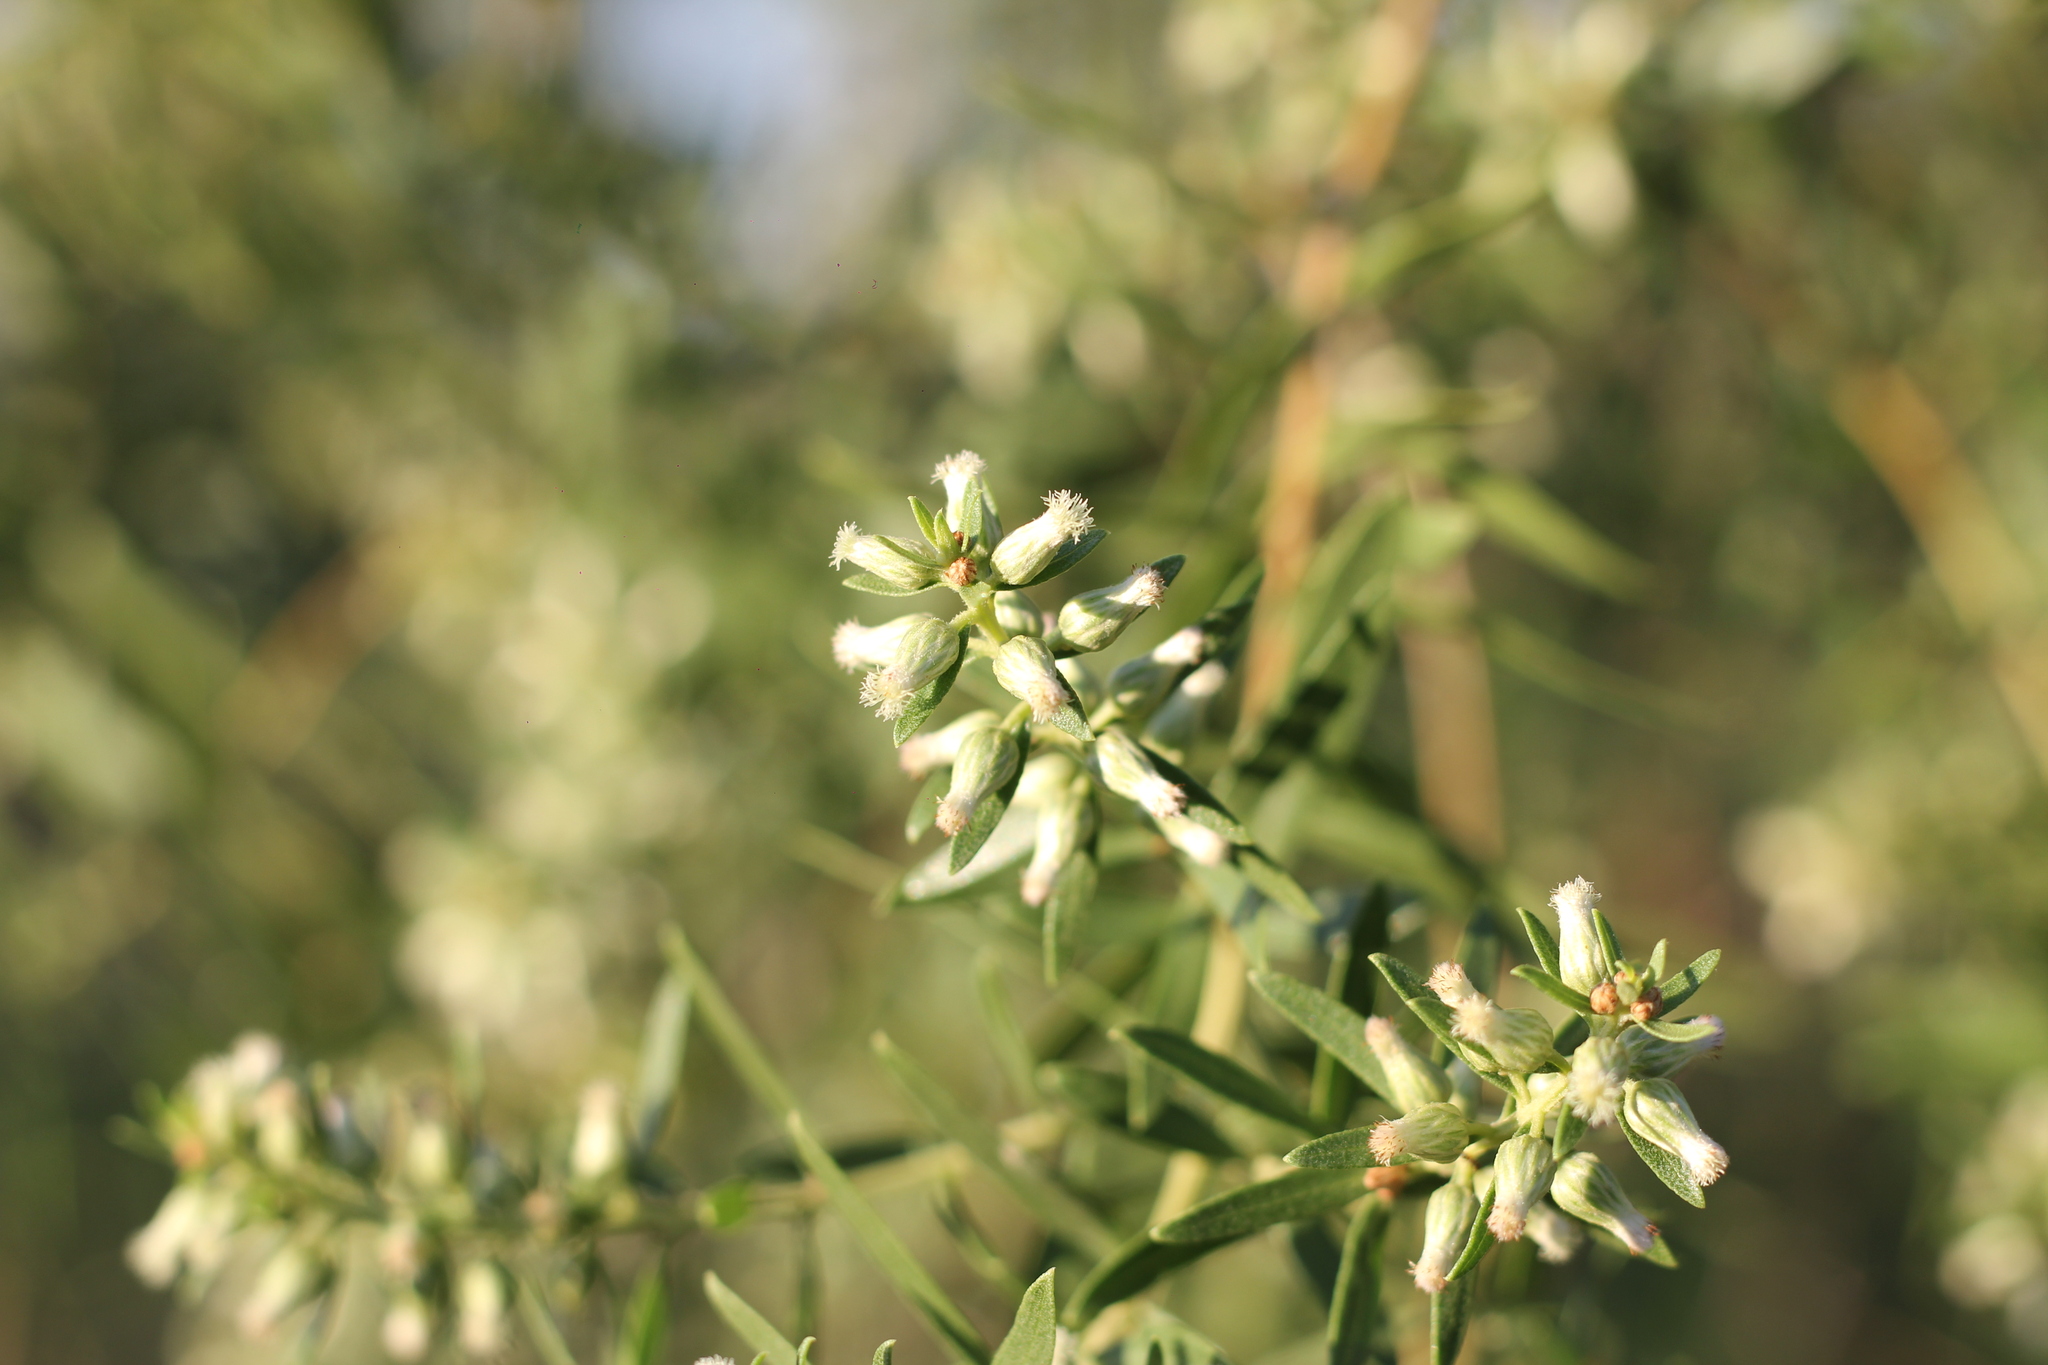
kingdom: Plantae
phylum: Tracheophyta
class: Magnoliopsida
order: Asterales
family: Asteraceae
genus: Baccharis
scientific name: Baccharis dracunculifolia
